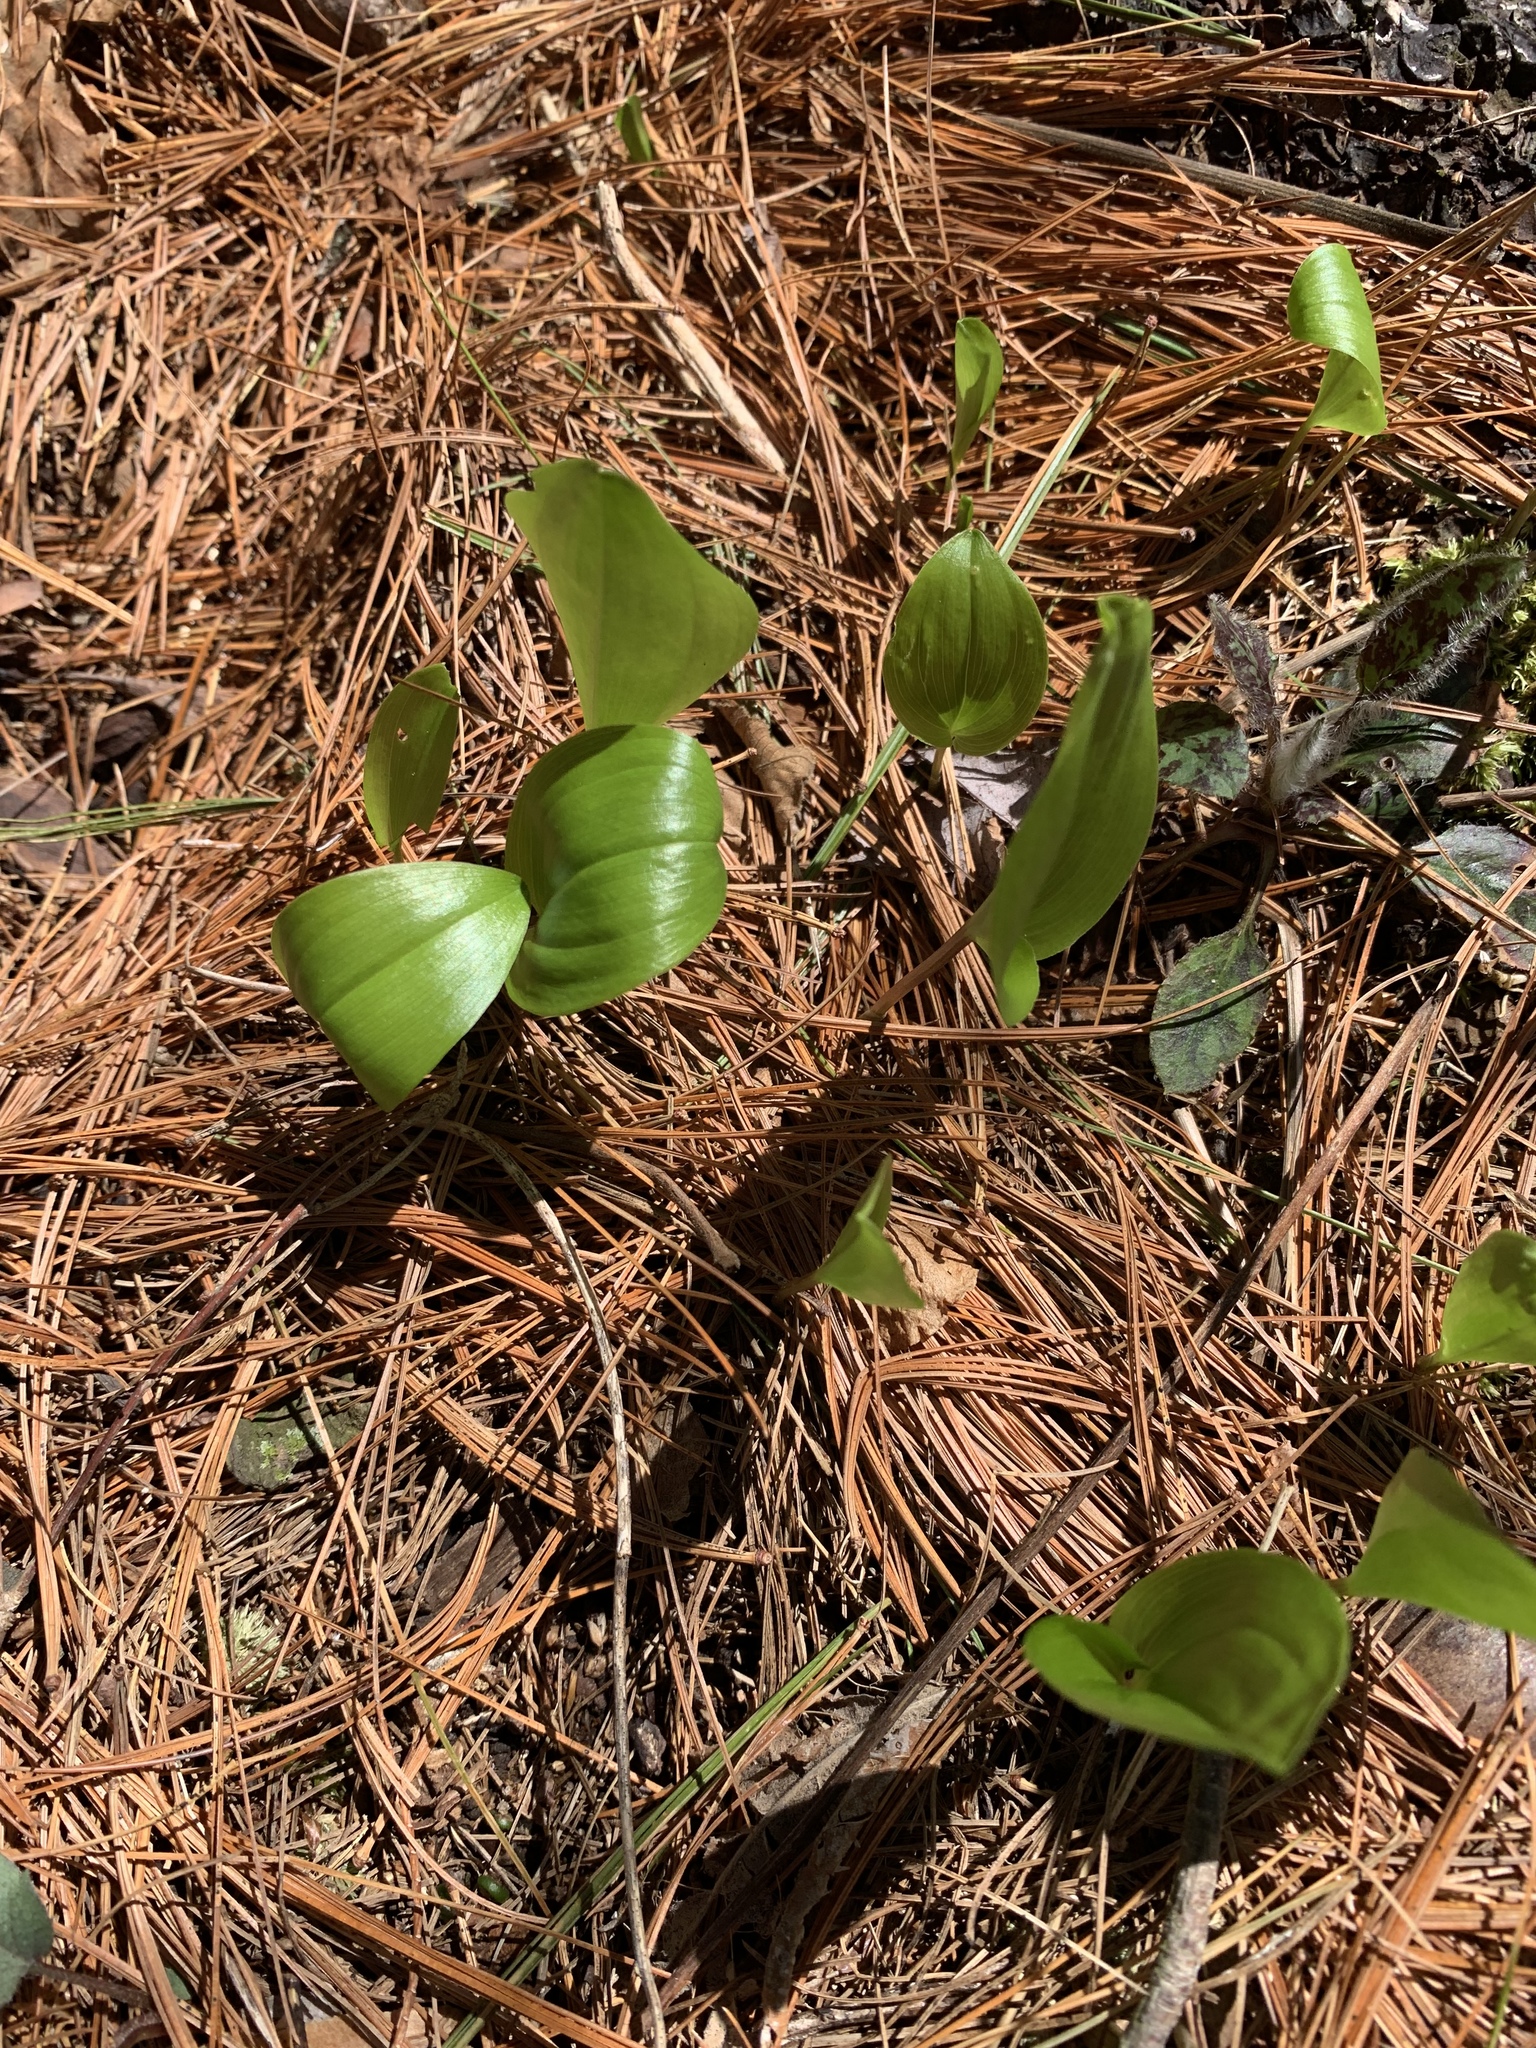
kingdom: Plantae
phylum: Tracheophyta
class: Liliopsida
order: Asparagales
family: Asparagaceae
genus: Maianthemum
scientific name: Maianthemum canadense
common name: False lily-of-the-valley
